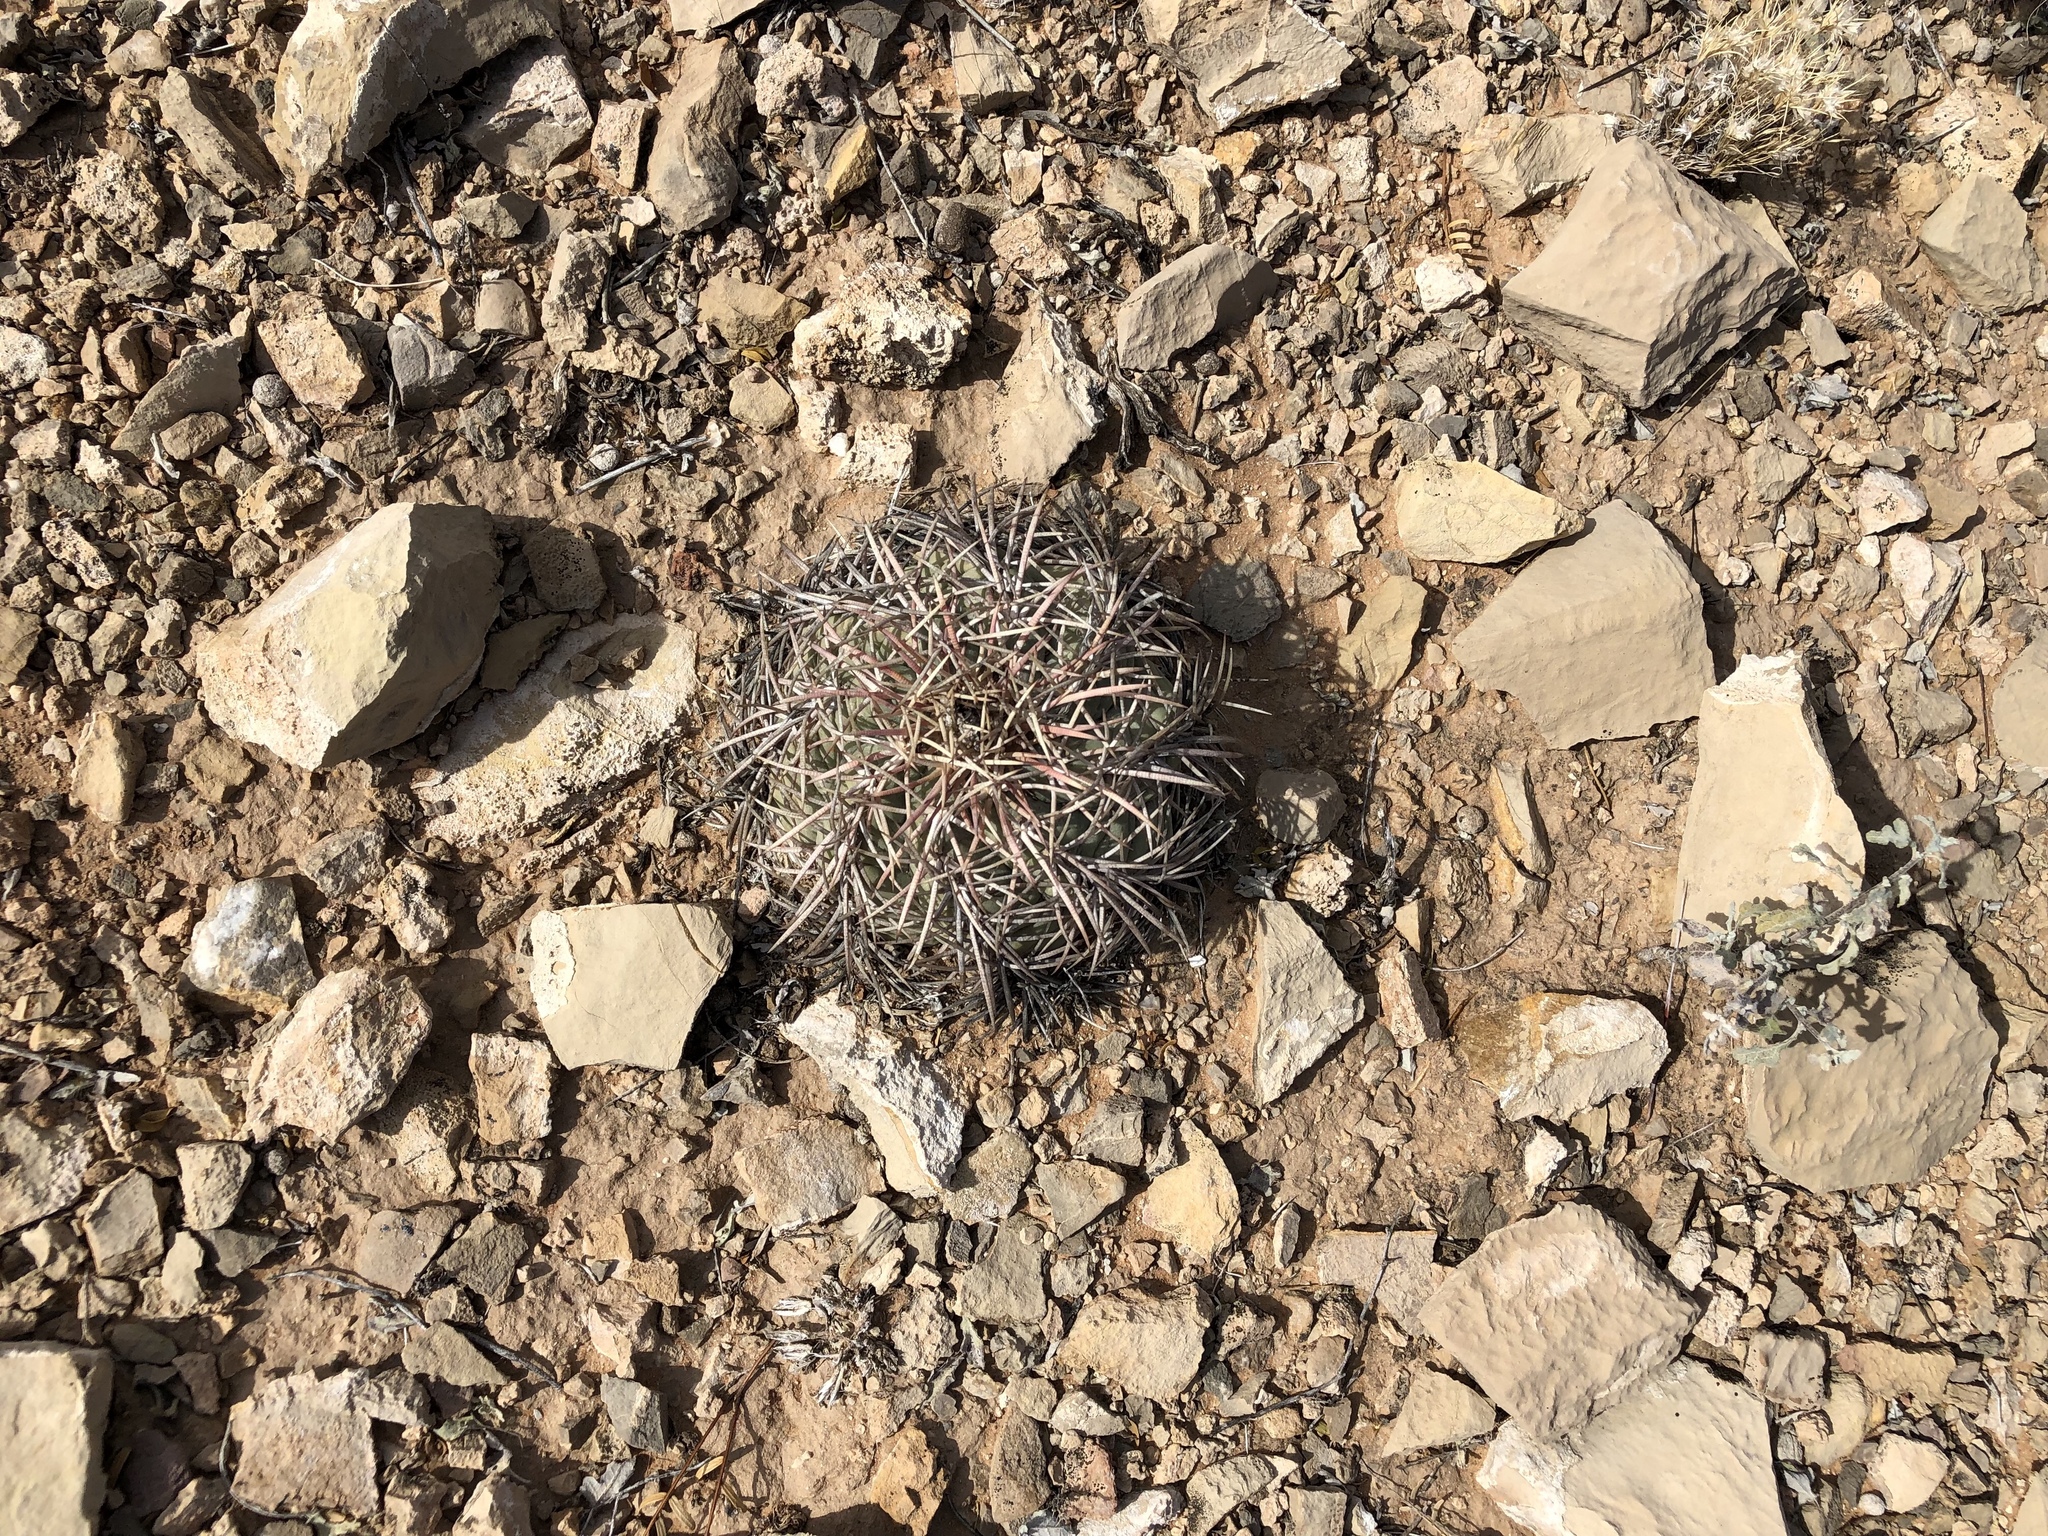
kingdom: Plantae
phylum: Tracheophyta
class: Magnoliopsida
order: Caryophyllales
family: Cactaceae
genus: Echinocactus
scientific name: Echinocactus horizonthalonius
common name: Devilshead
